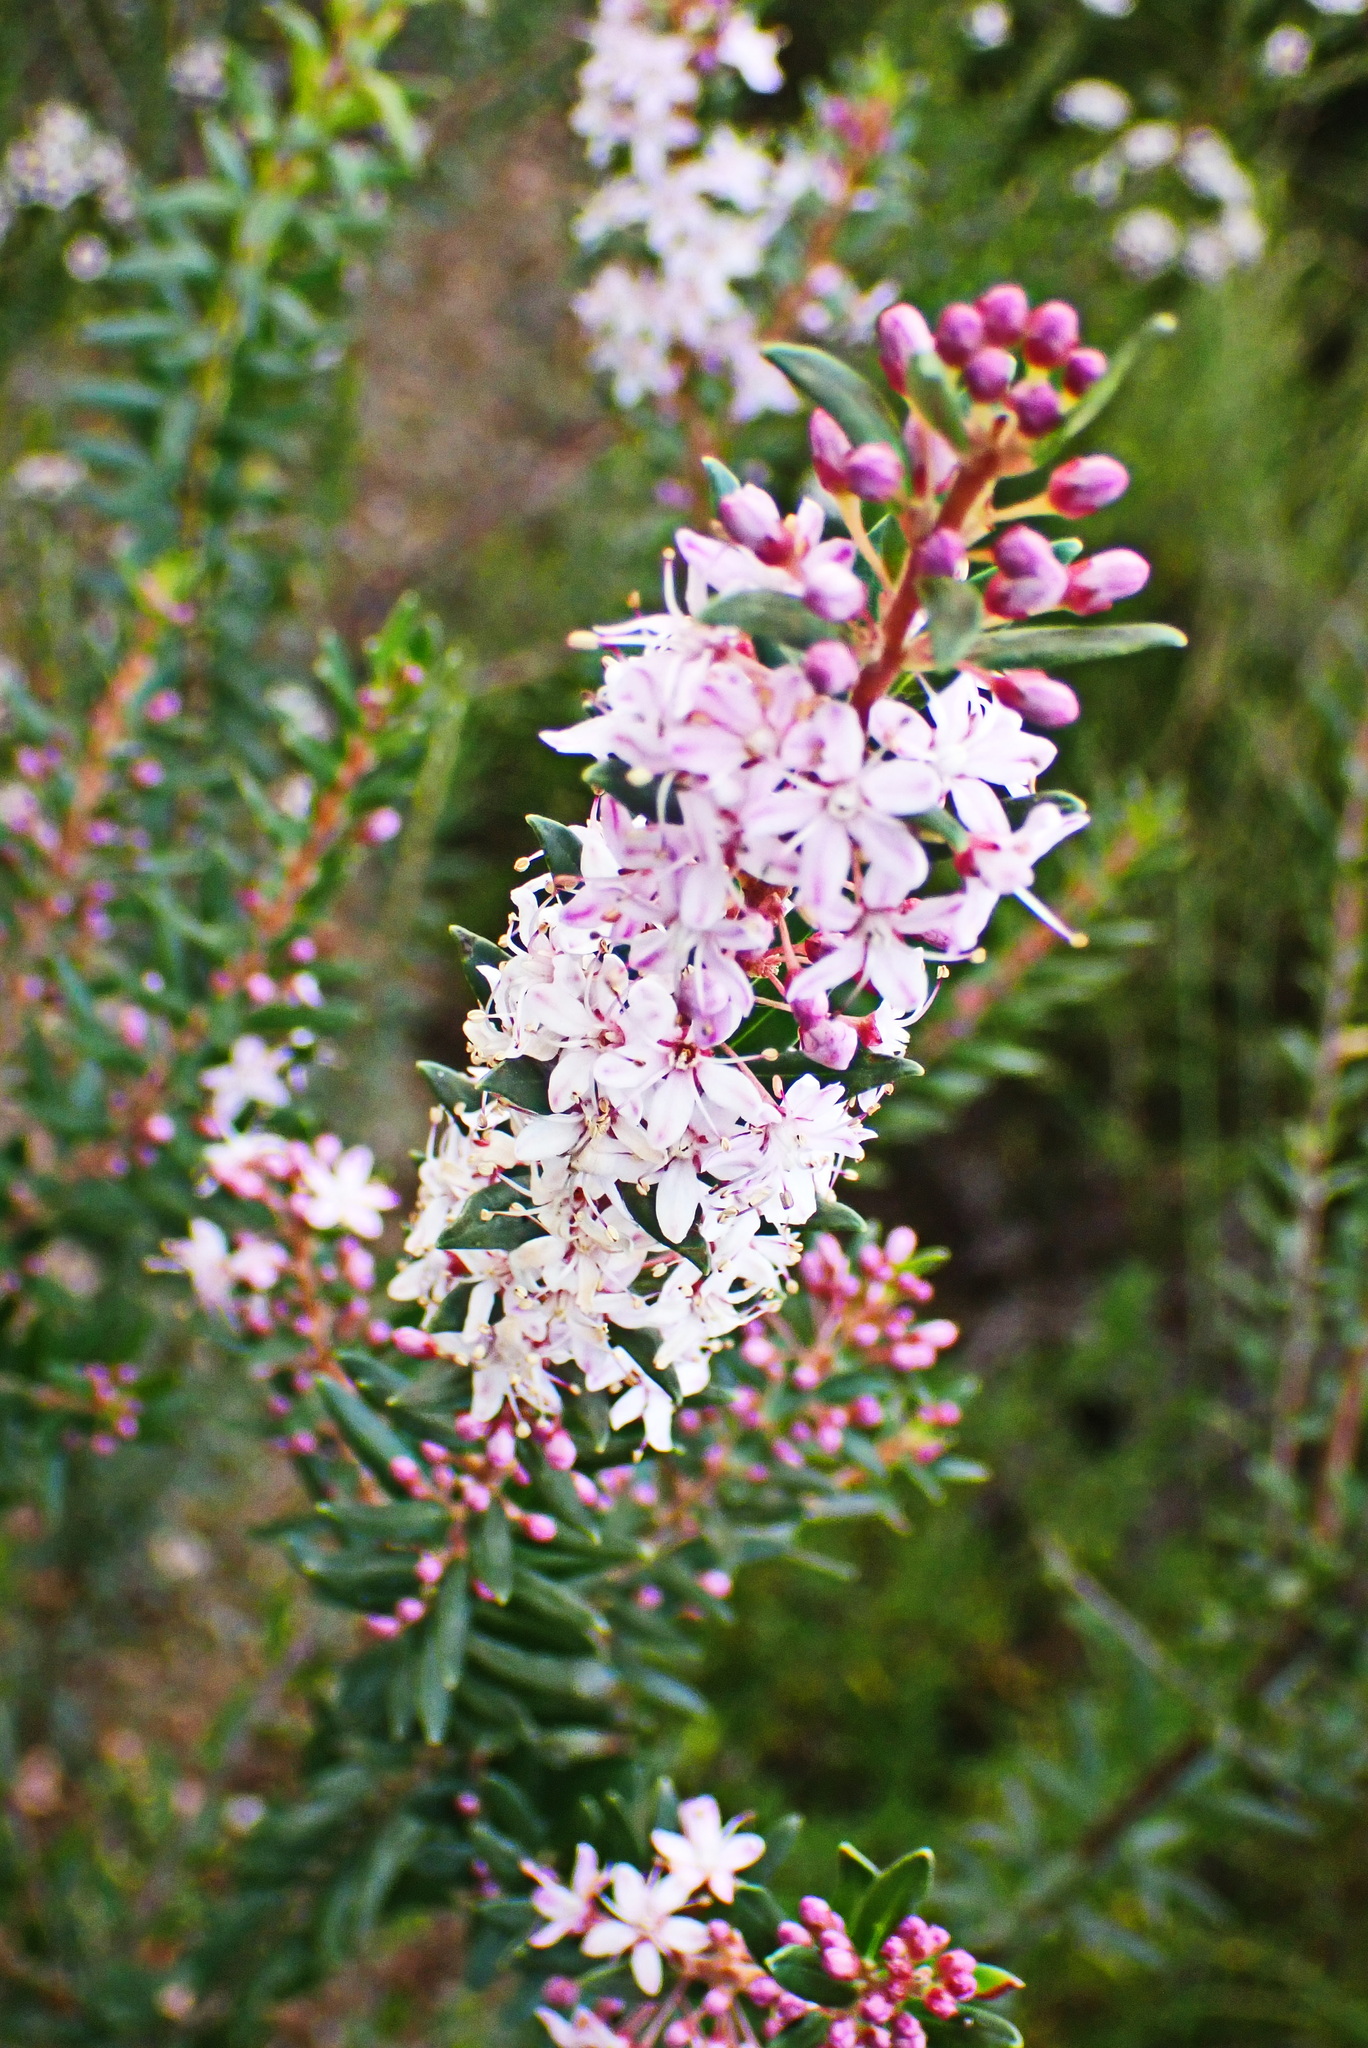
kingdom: Plantae
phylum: Tracheophyta
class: Magnoliopsida
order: Sapindales
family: Rutaceae
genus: Agathosma
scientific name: Agathosma ovata
